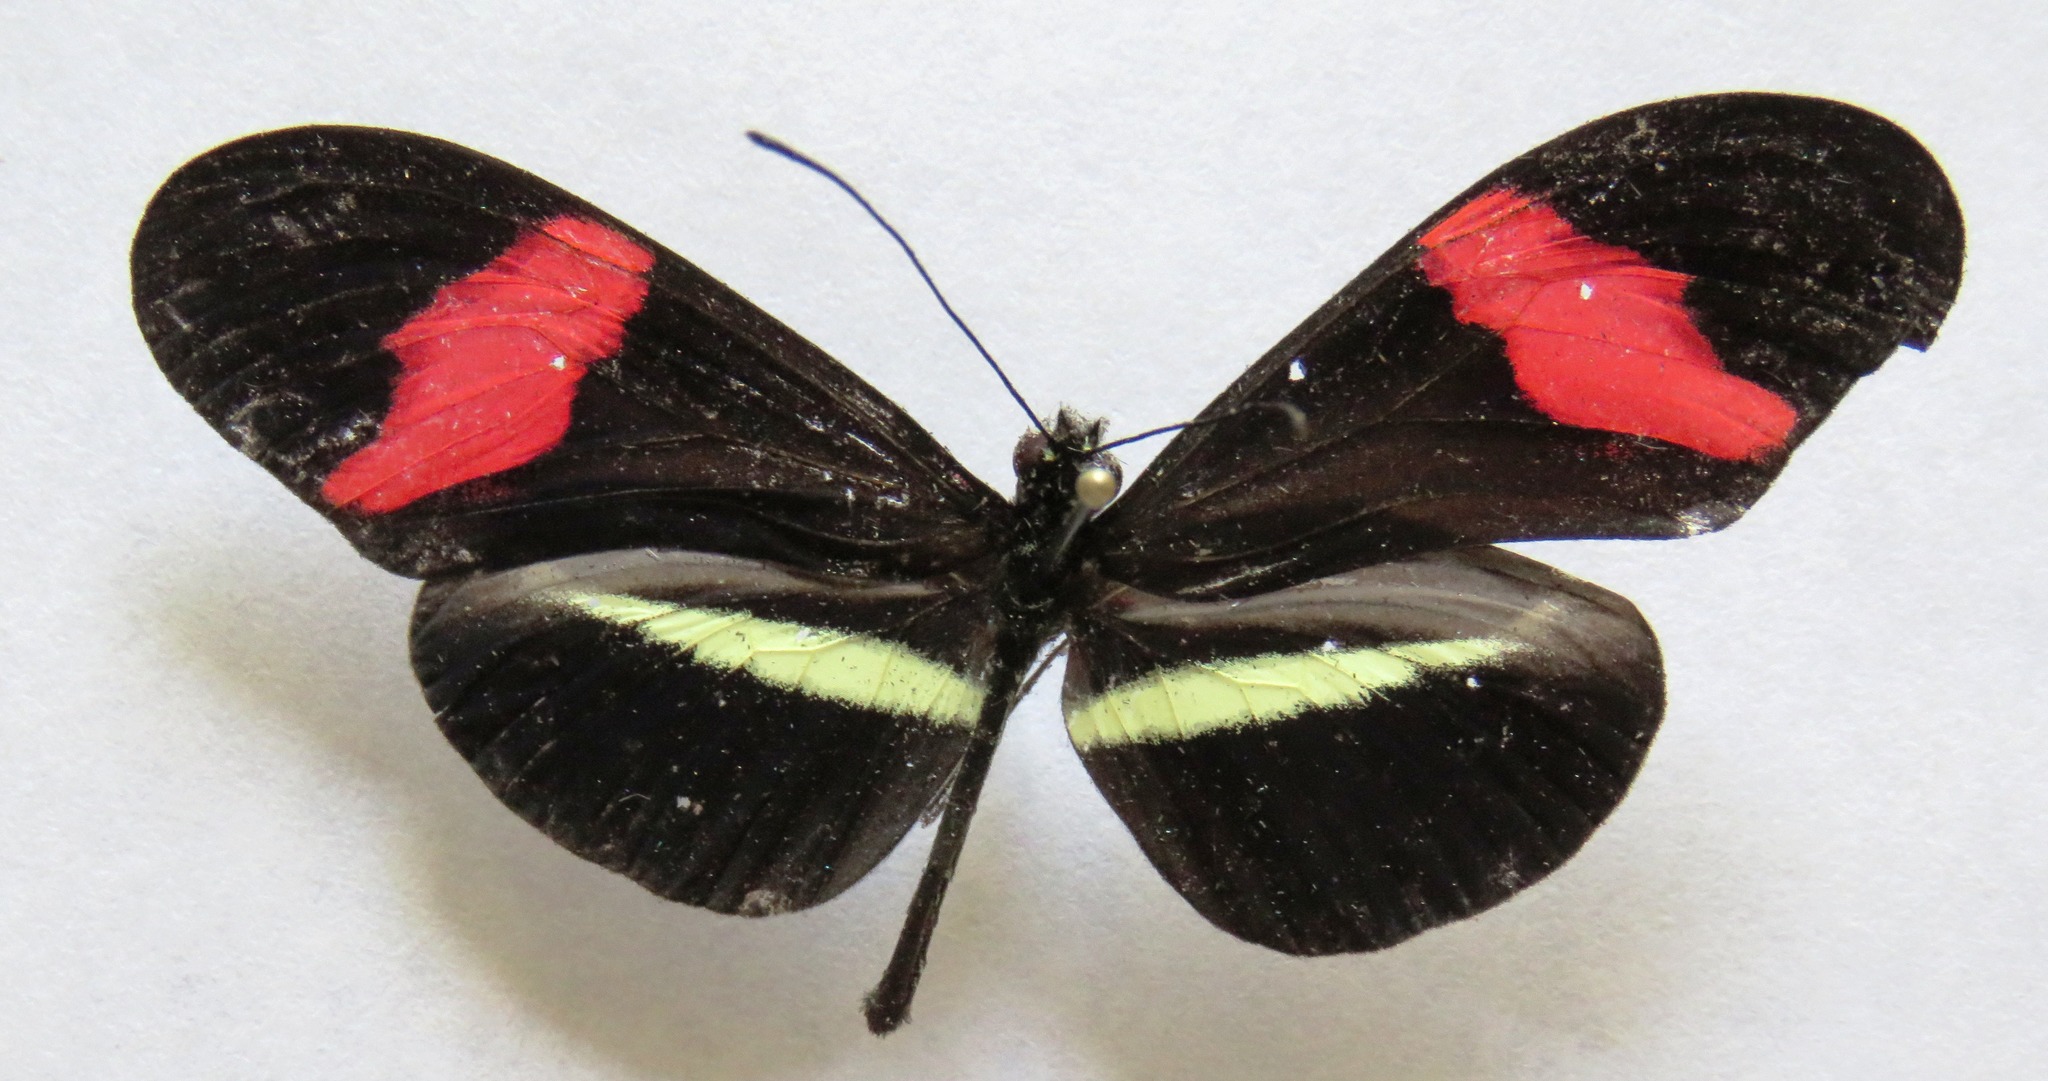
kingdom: Animalia
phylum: Arthropoda
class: Insecta
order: Lepidoptera
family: Nymphalidae
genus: Tirumala
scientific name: Tirumala petiverana
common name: Blue monarch
